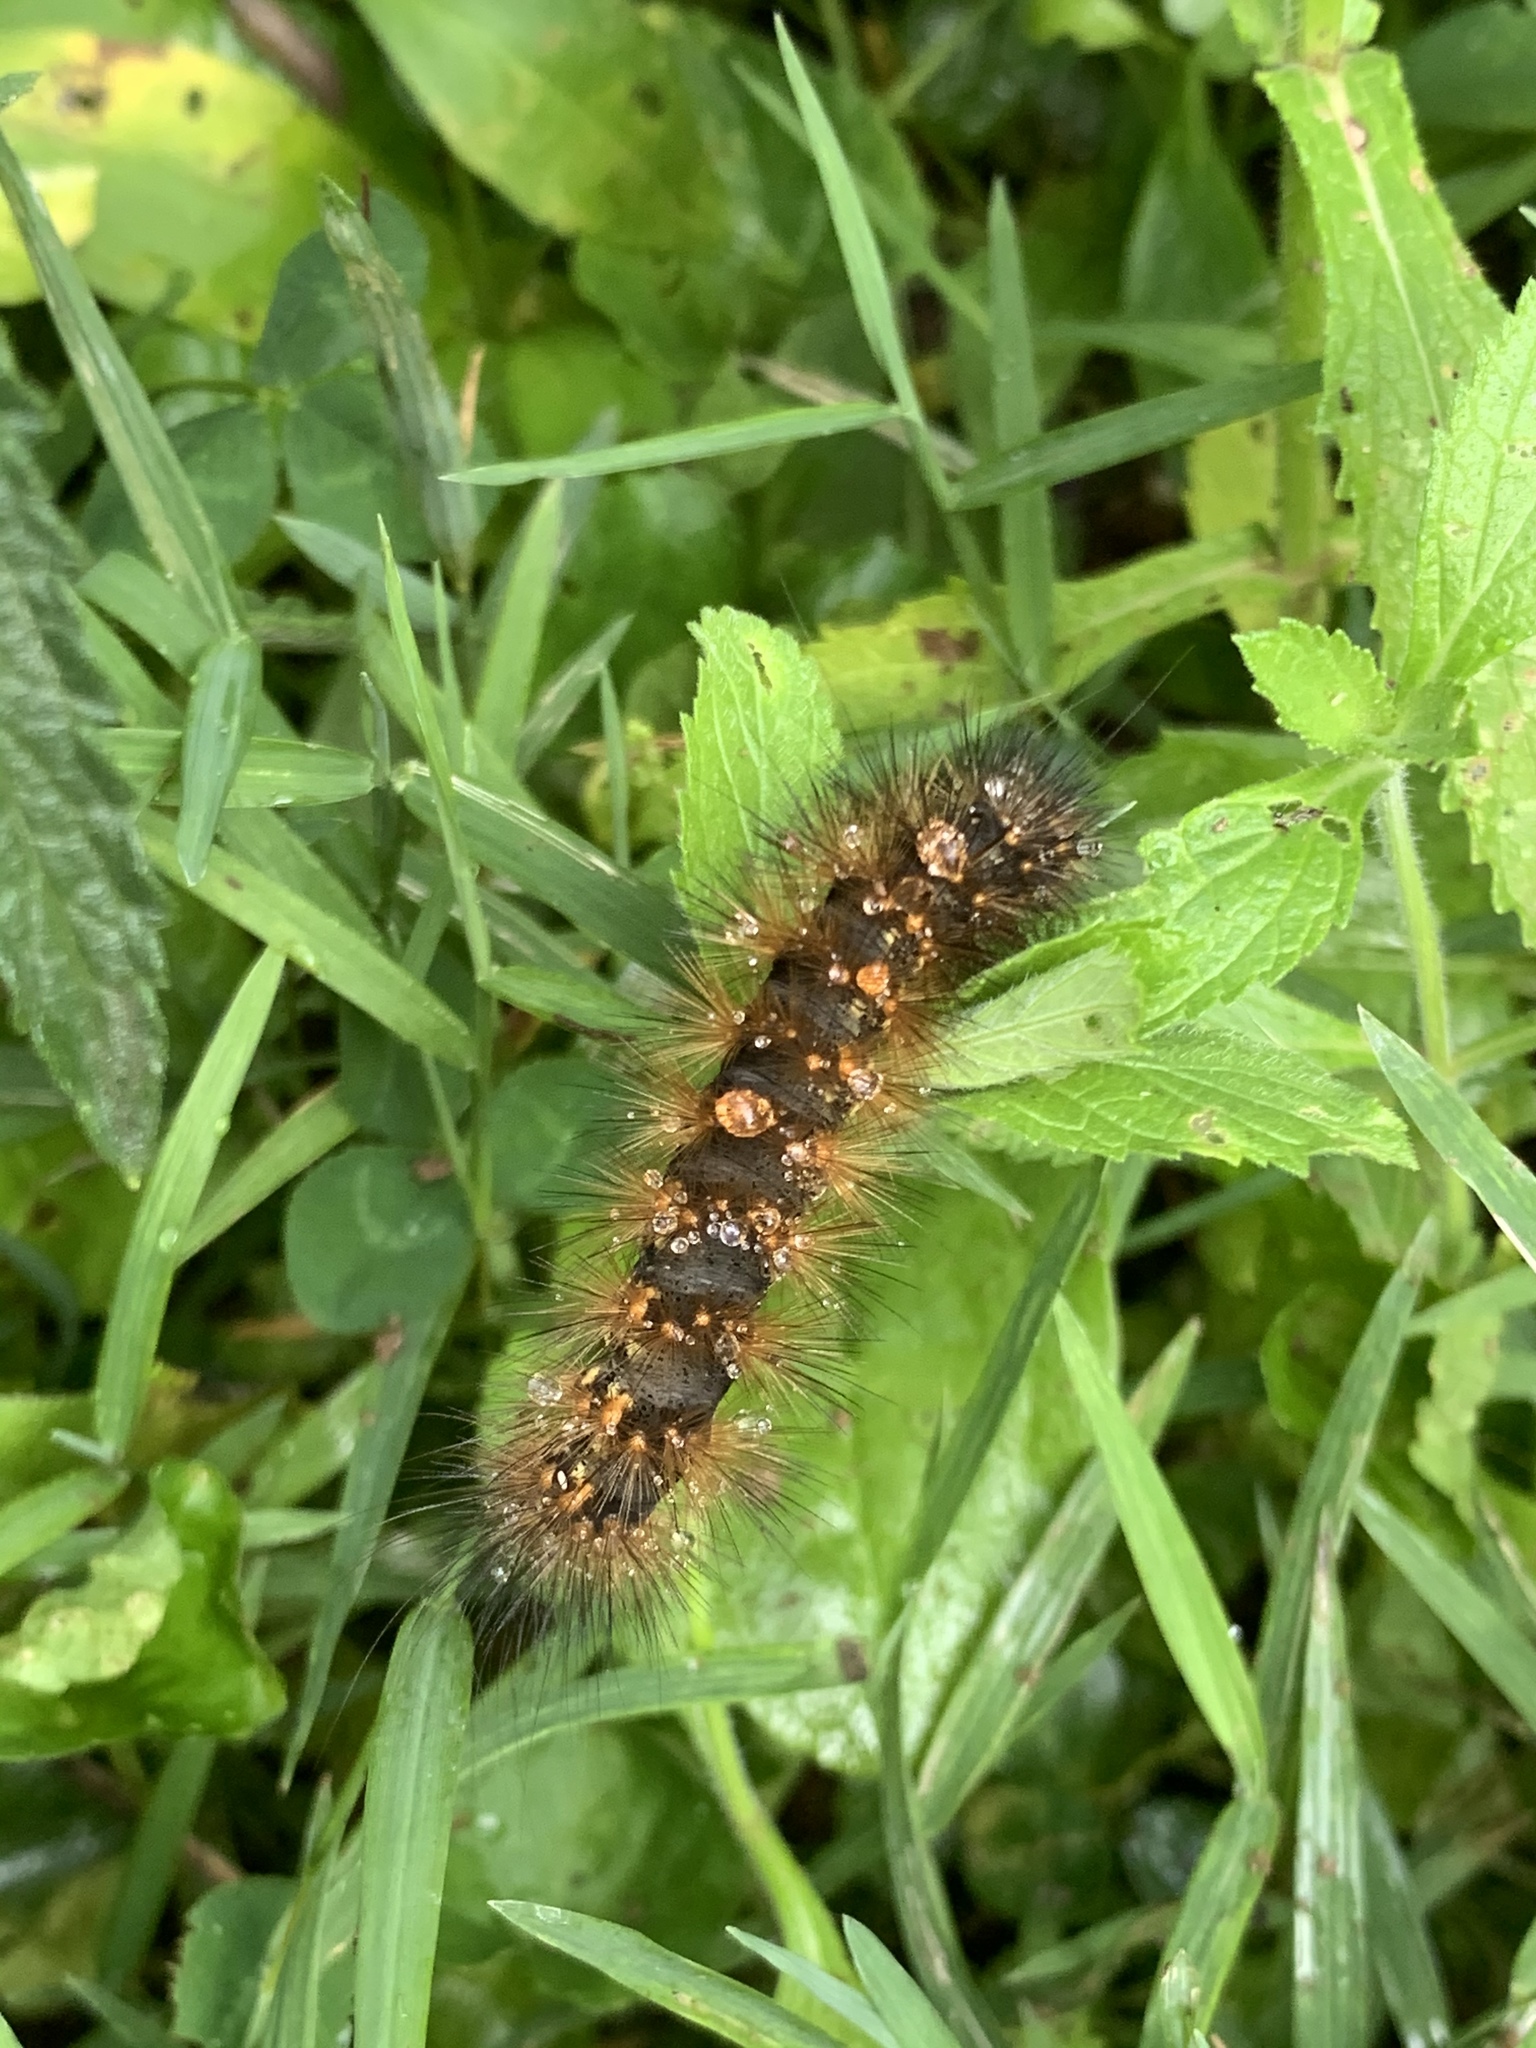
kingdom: Animalia
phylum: Arthropoda
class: Insecta
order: Lepidoptera
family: Erebidae
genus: Estigmene
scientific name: Estigmene acrea
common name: Salt marsh moth
